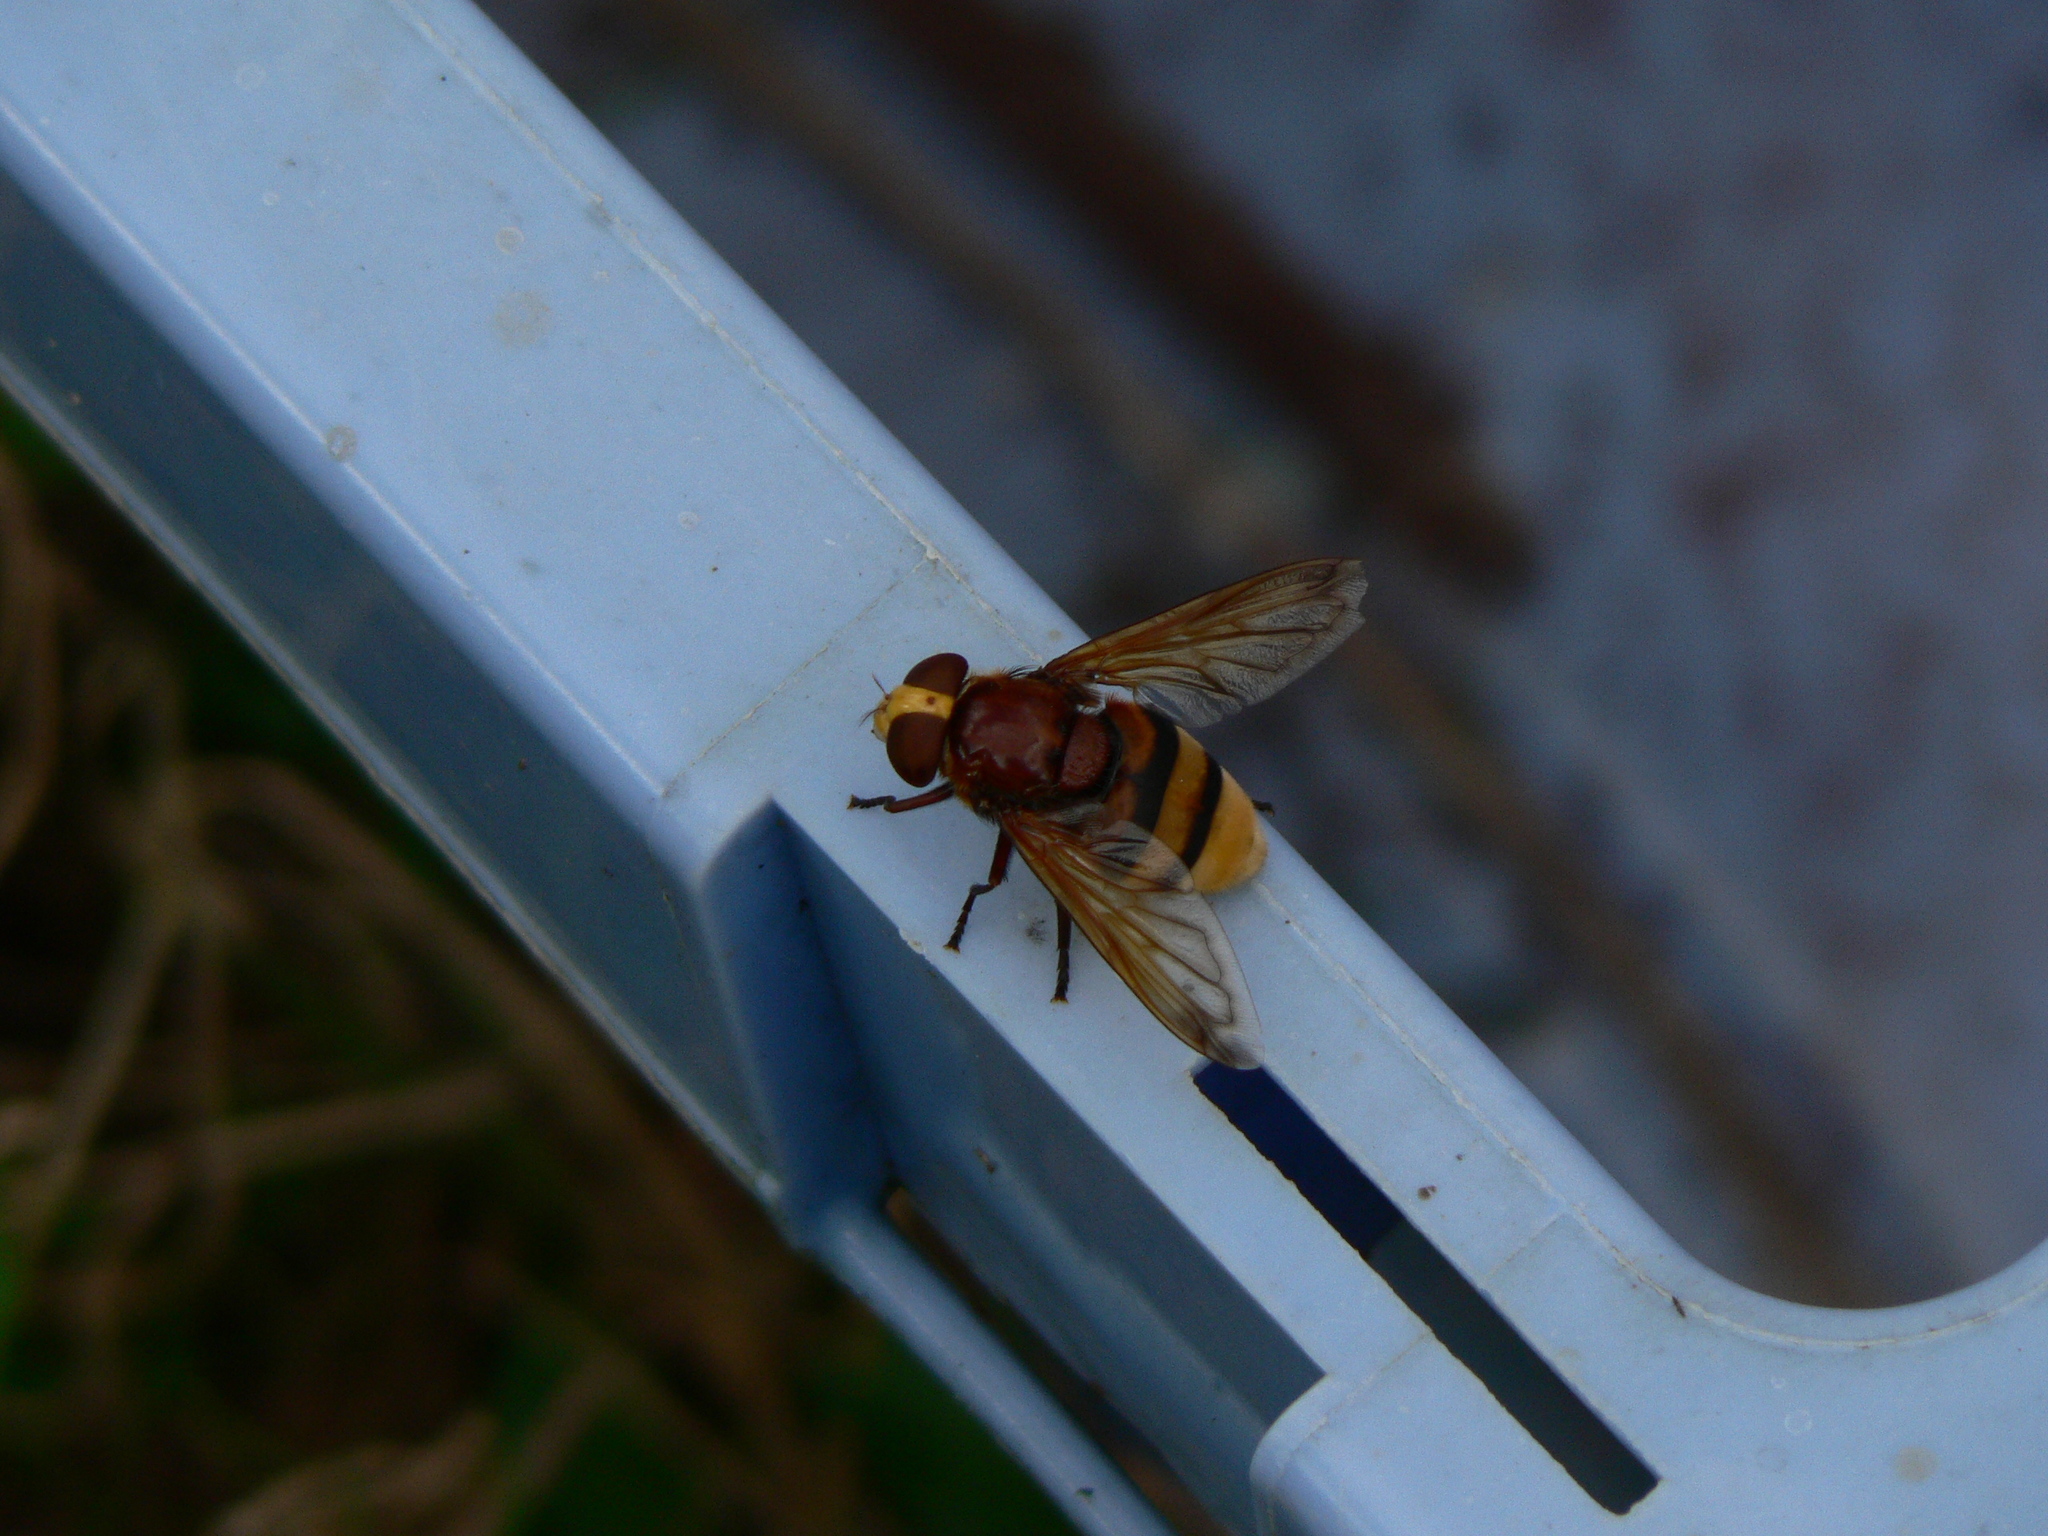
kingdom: Animalia
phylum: Arthropoda
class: Insecta
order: Diptera
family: Syrphidae
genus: Volucella
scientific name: Volucella zonaria
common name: Hornet hoverfly
